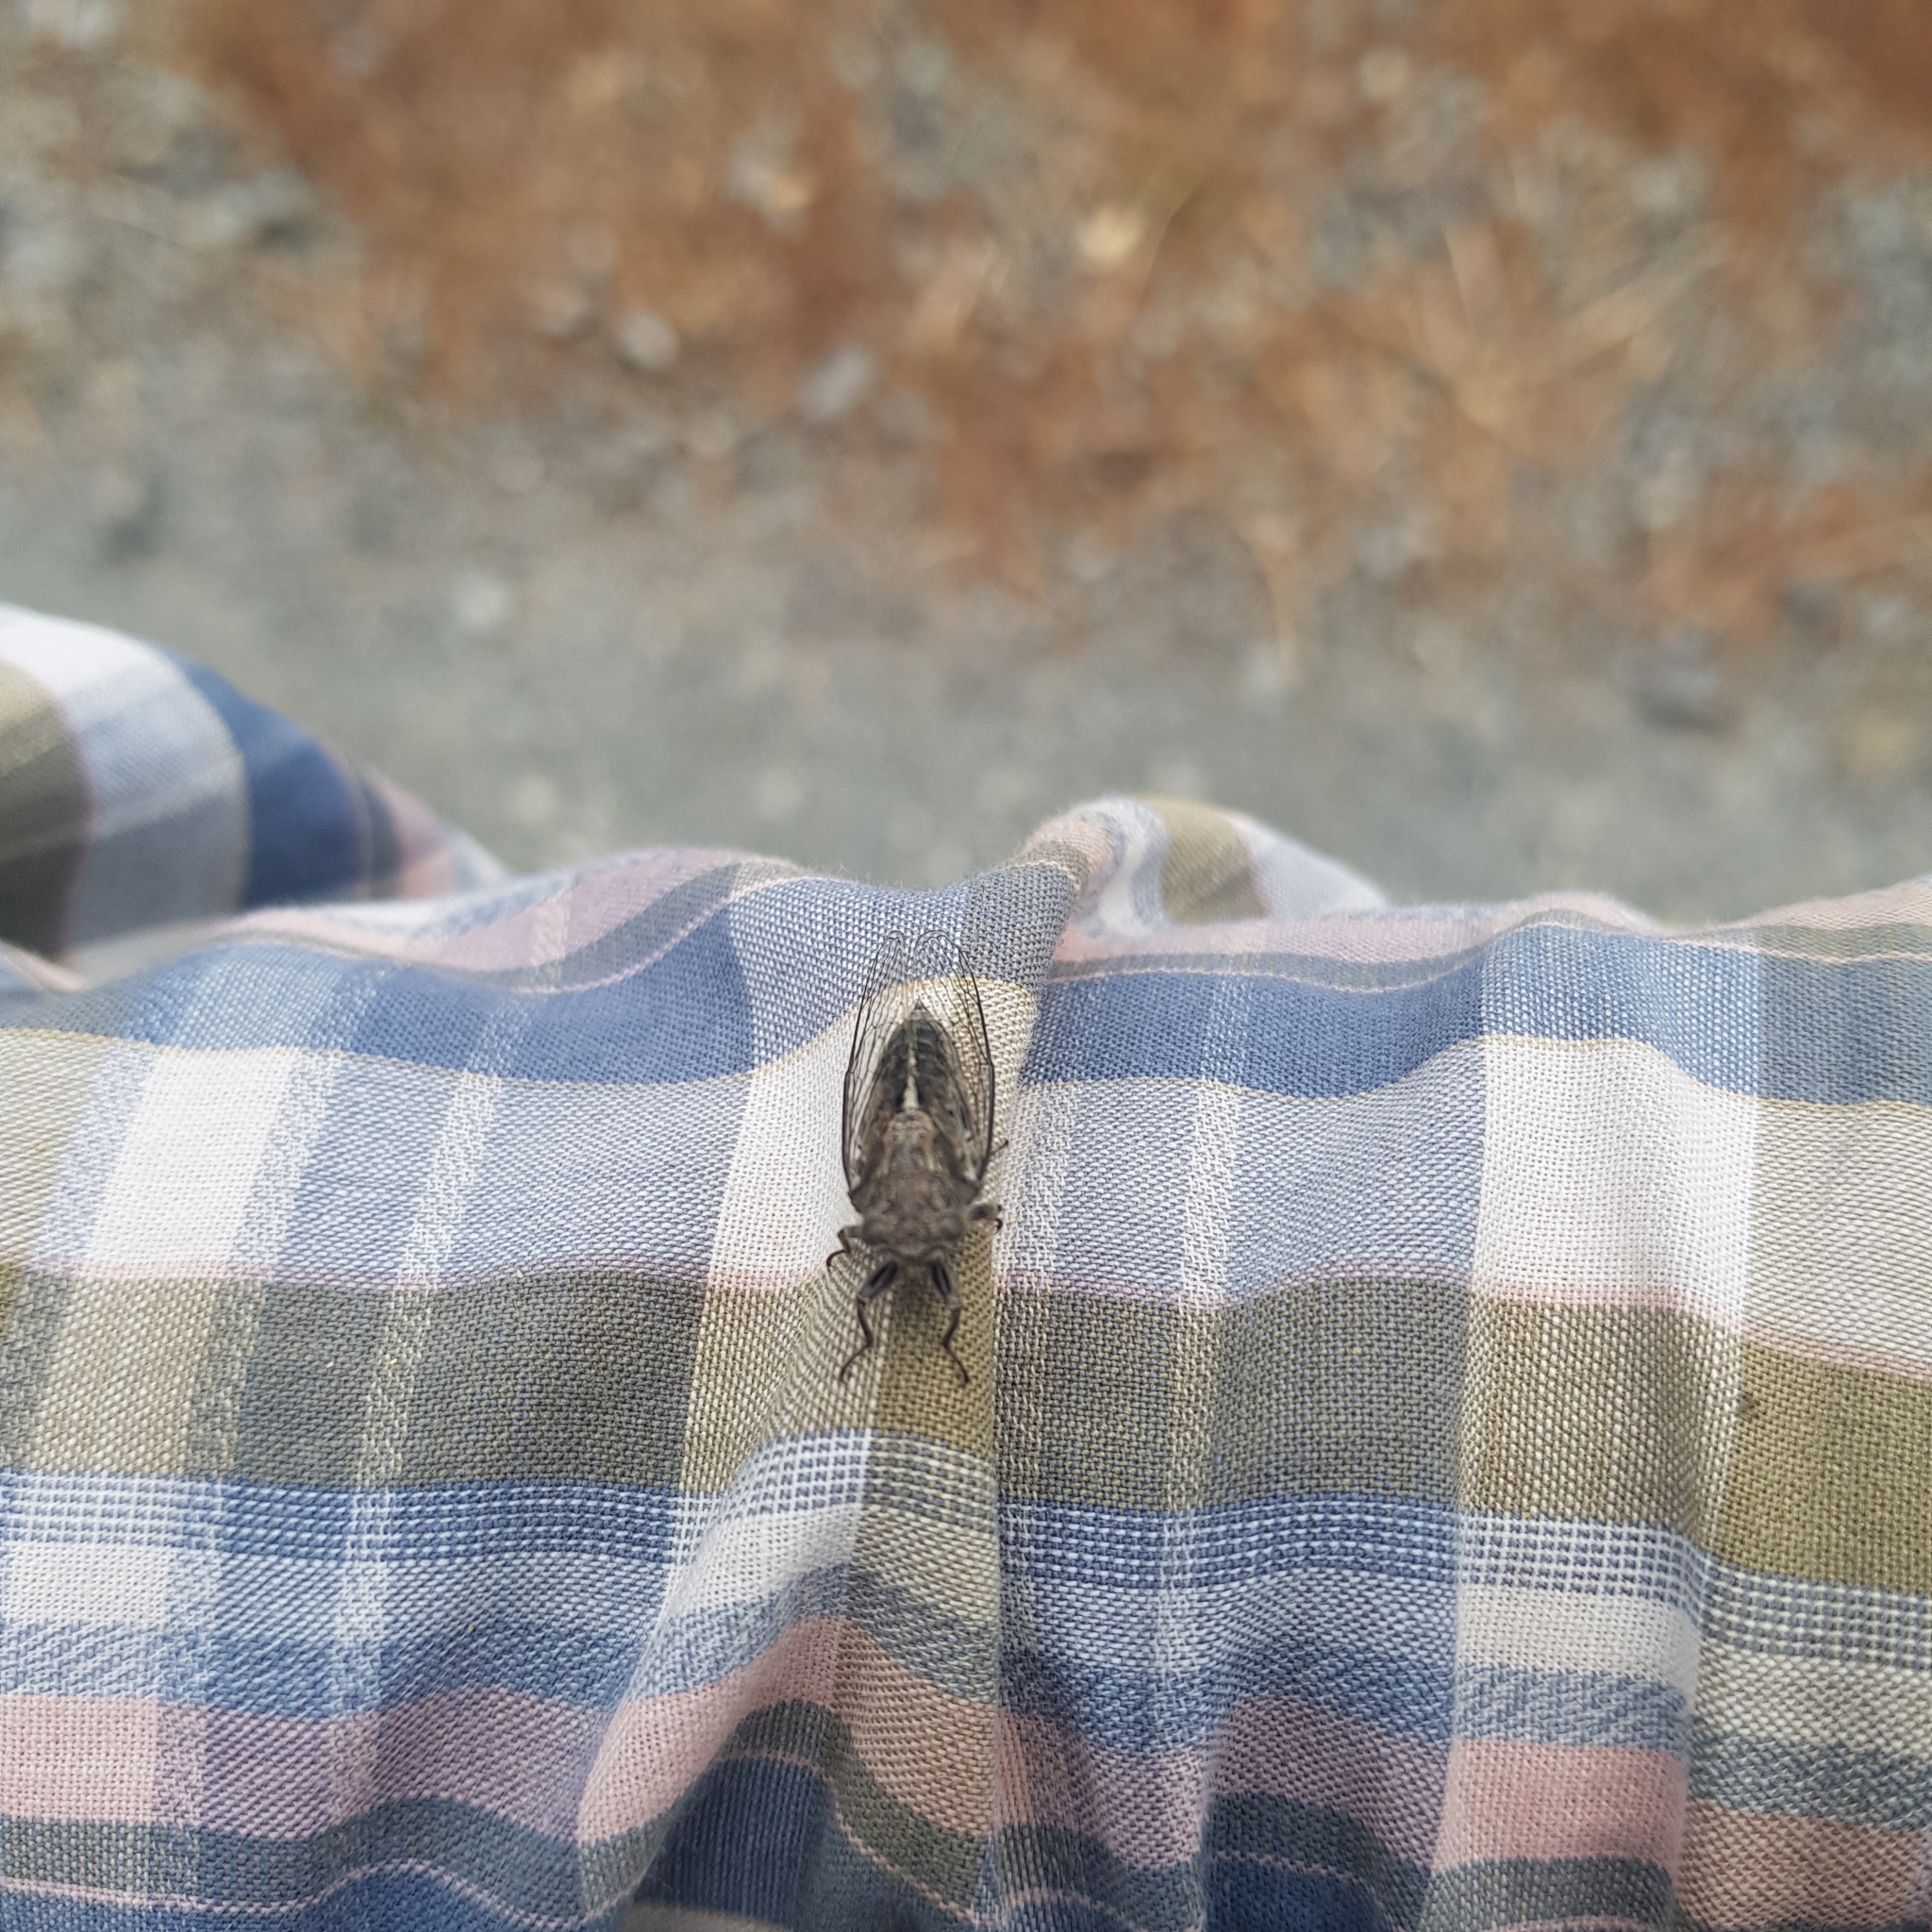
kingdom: Animalia
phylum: Arthropoda
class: Insecta
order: Hemiptera
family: Cicadidae
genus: Notopsalta
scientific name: Notopsalta sericea
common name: Clay bank cicada
